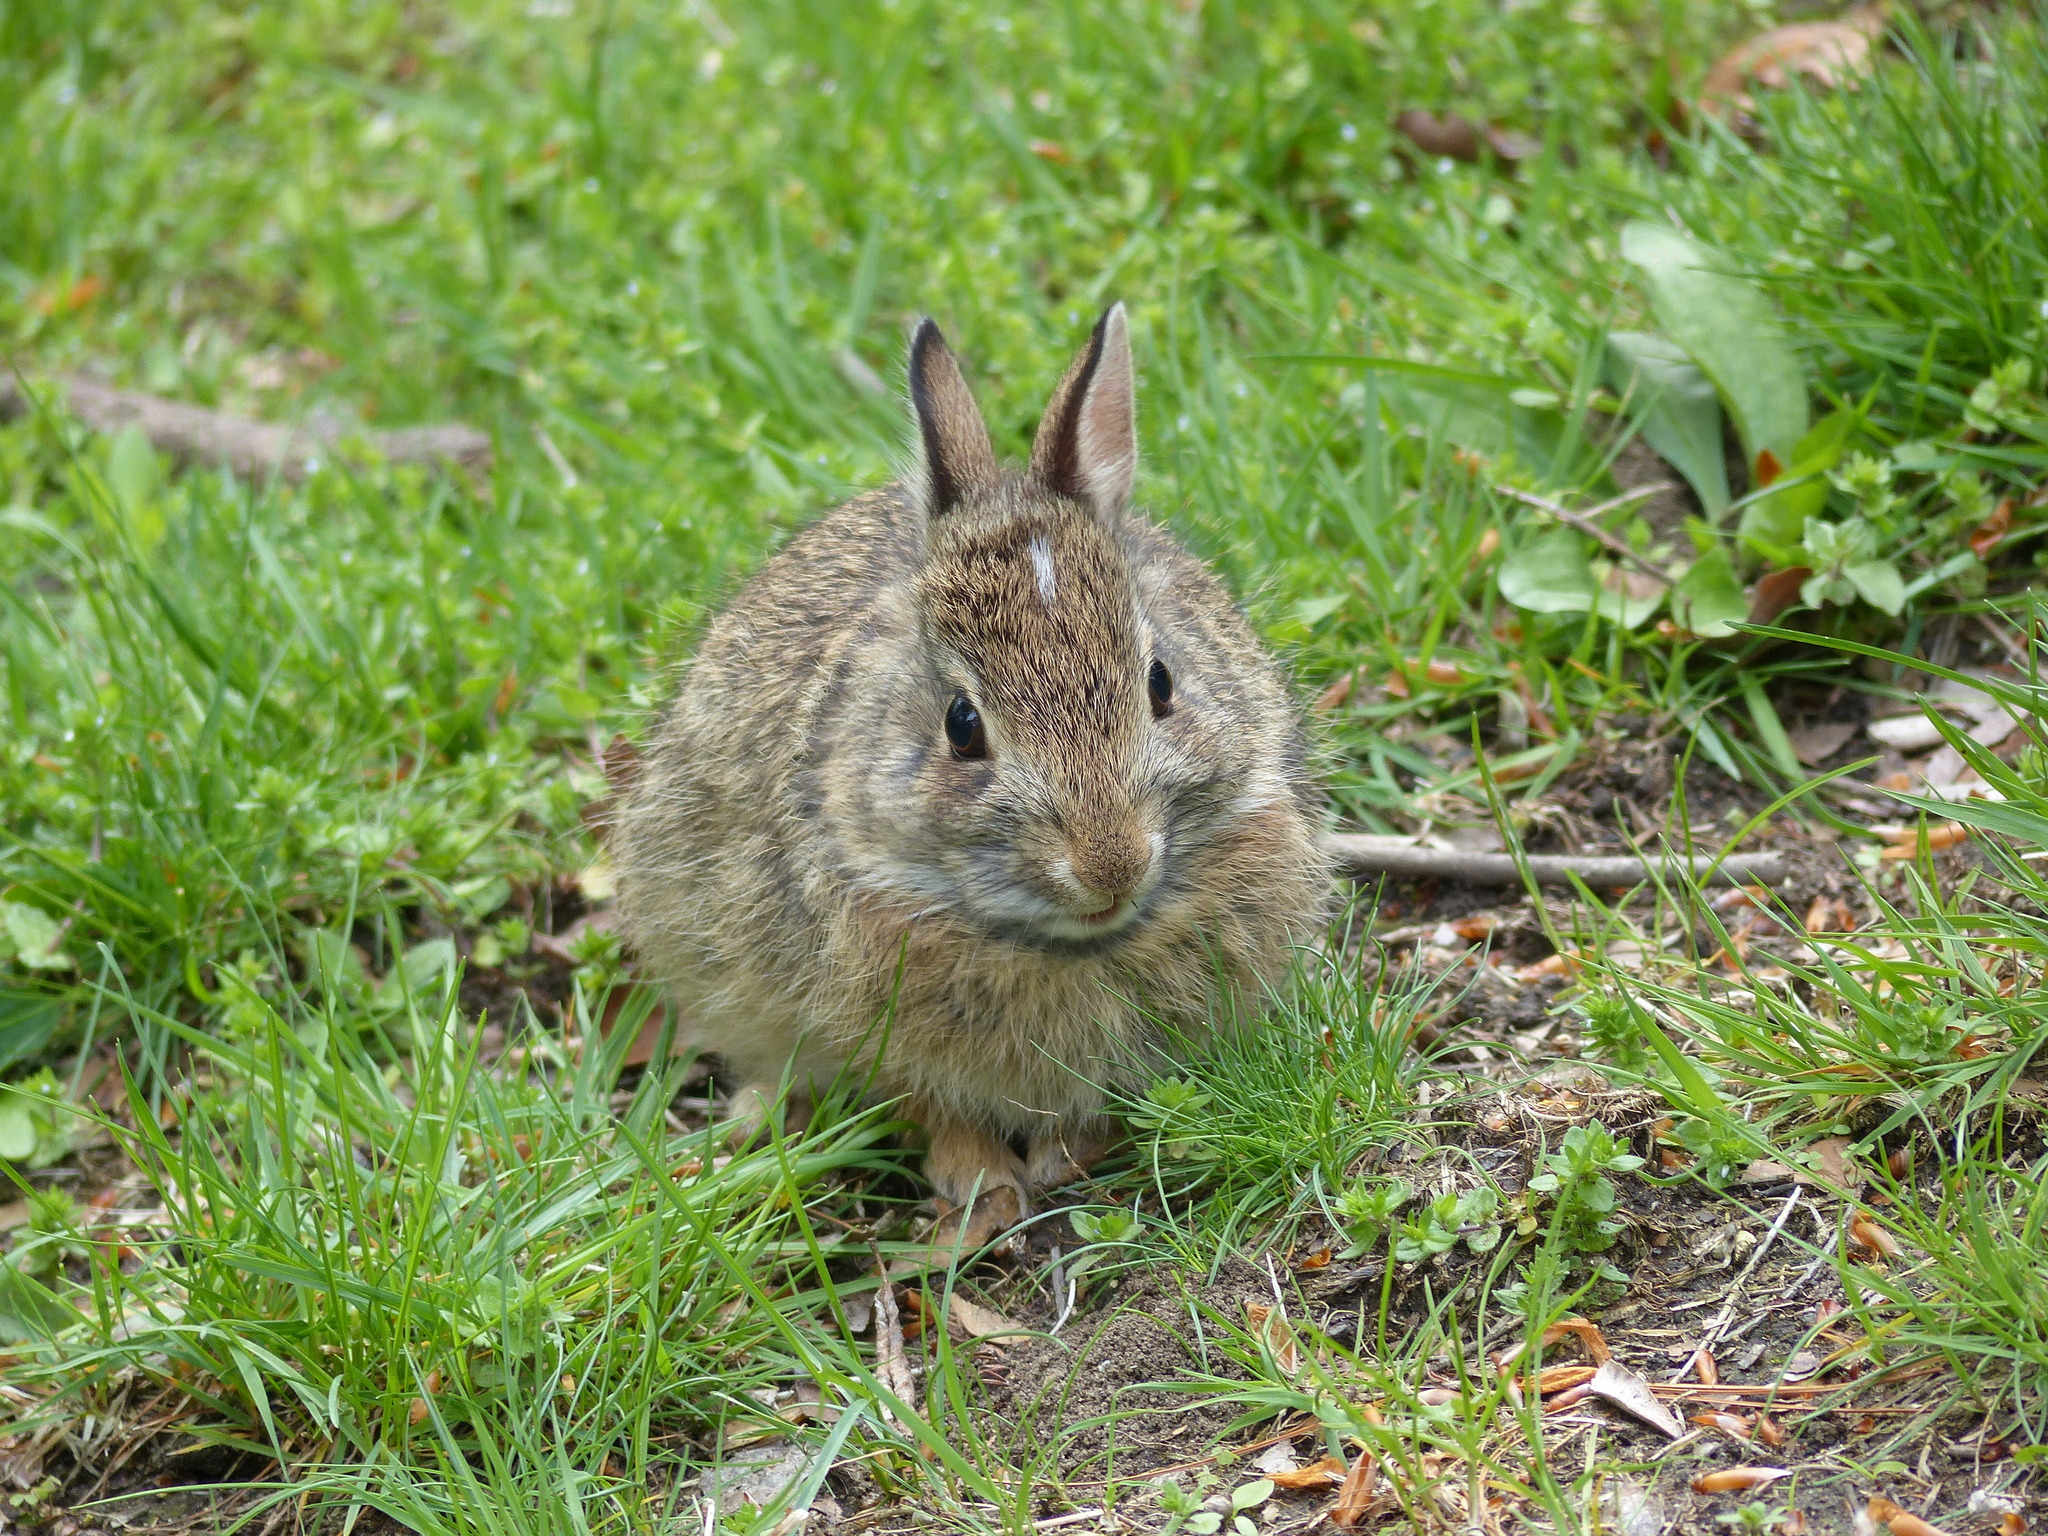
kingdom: Animalia
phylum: Chordata
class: Mammalia
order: Lagomorpha
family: Leporidae
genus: Sylvilagus
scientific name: Sylvilagus floridanus
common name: Eastern cottontail
